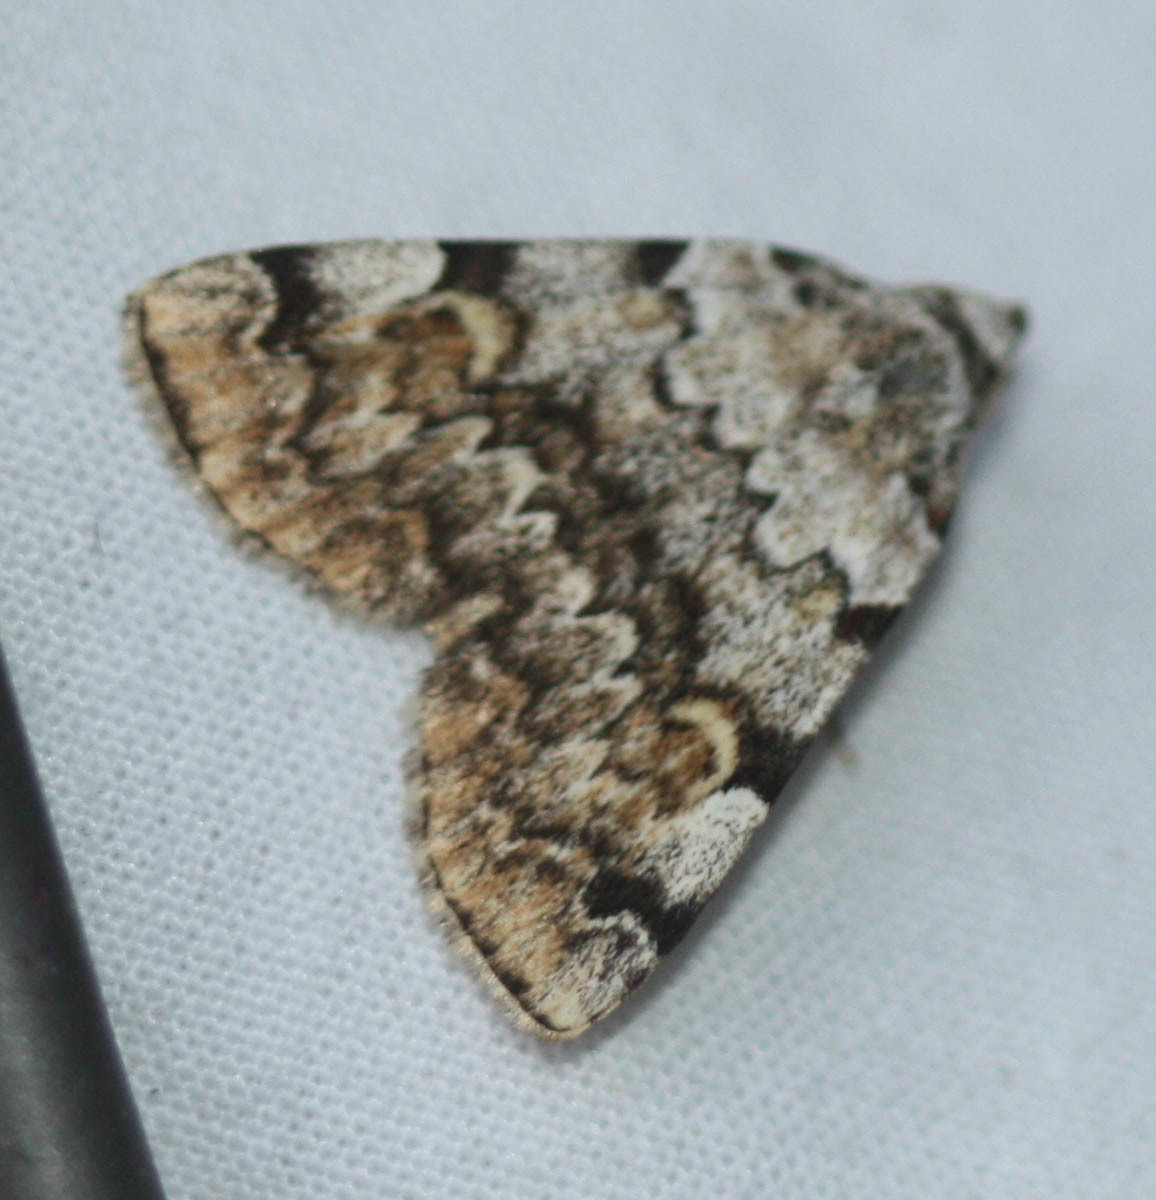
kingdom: Animalia
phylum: Arthropoda
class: Insecta
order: Lepidoptera
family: Erebidae
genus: Idia
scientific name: Idia americalis
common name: American idia moth
